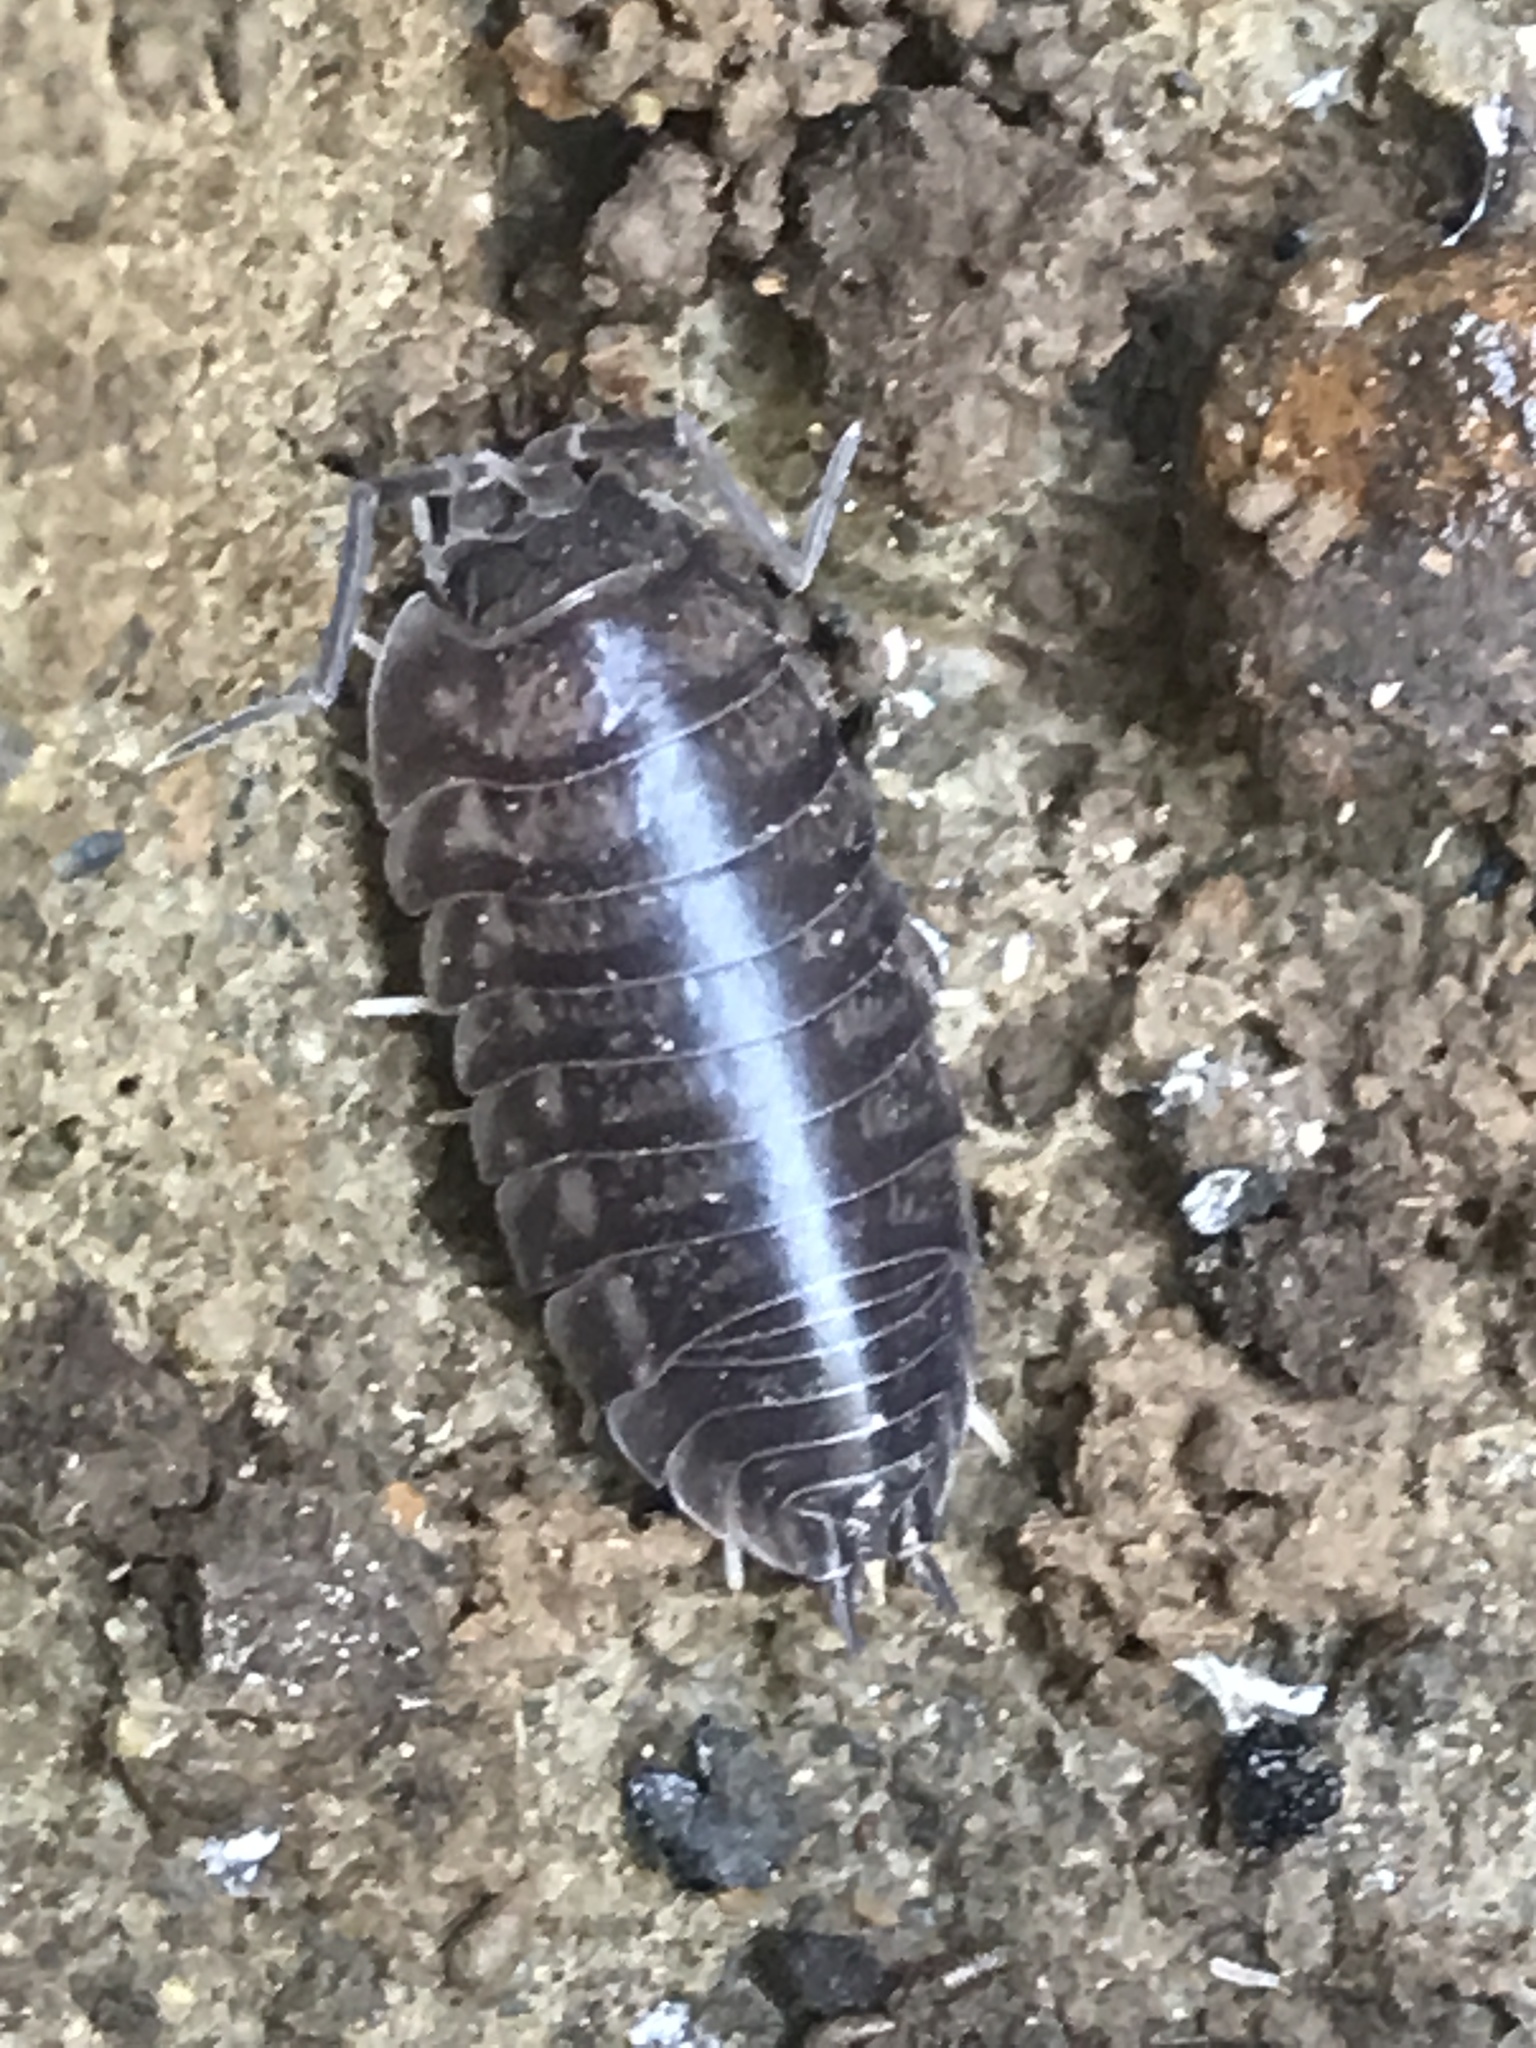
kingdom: Animalia
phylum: Arthropoda
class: Malacostraca
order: Isopoda
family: Cylisticidae
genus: Cylisticus
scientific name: Cylisticus convexus
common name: Curly woodlouse
